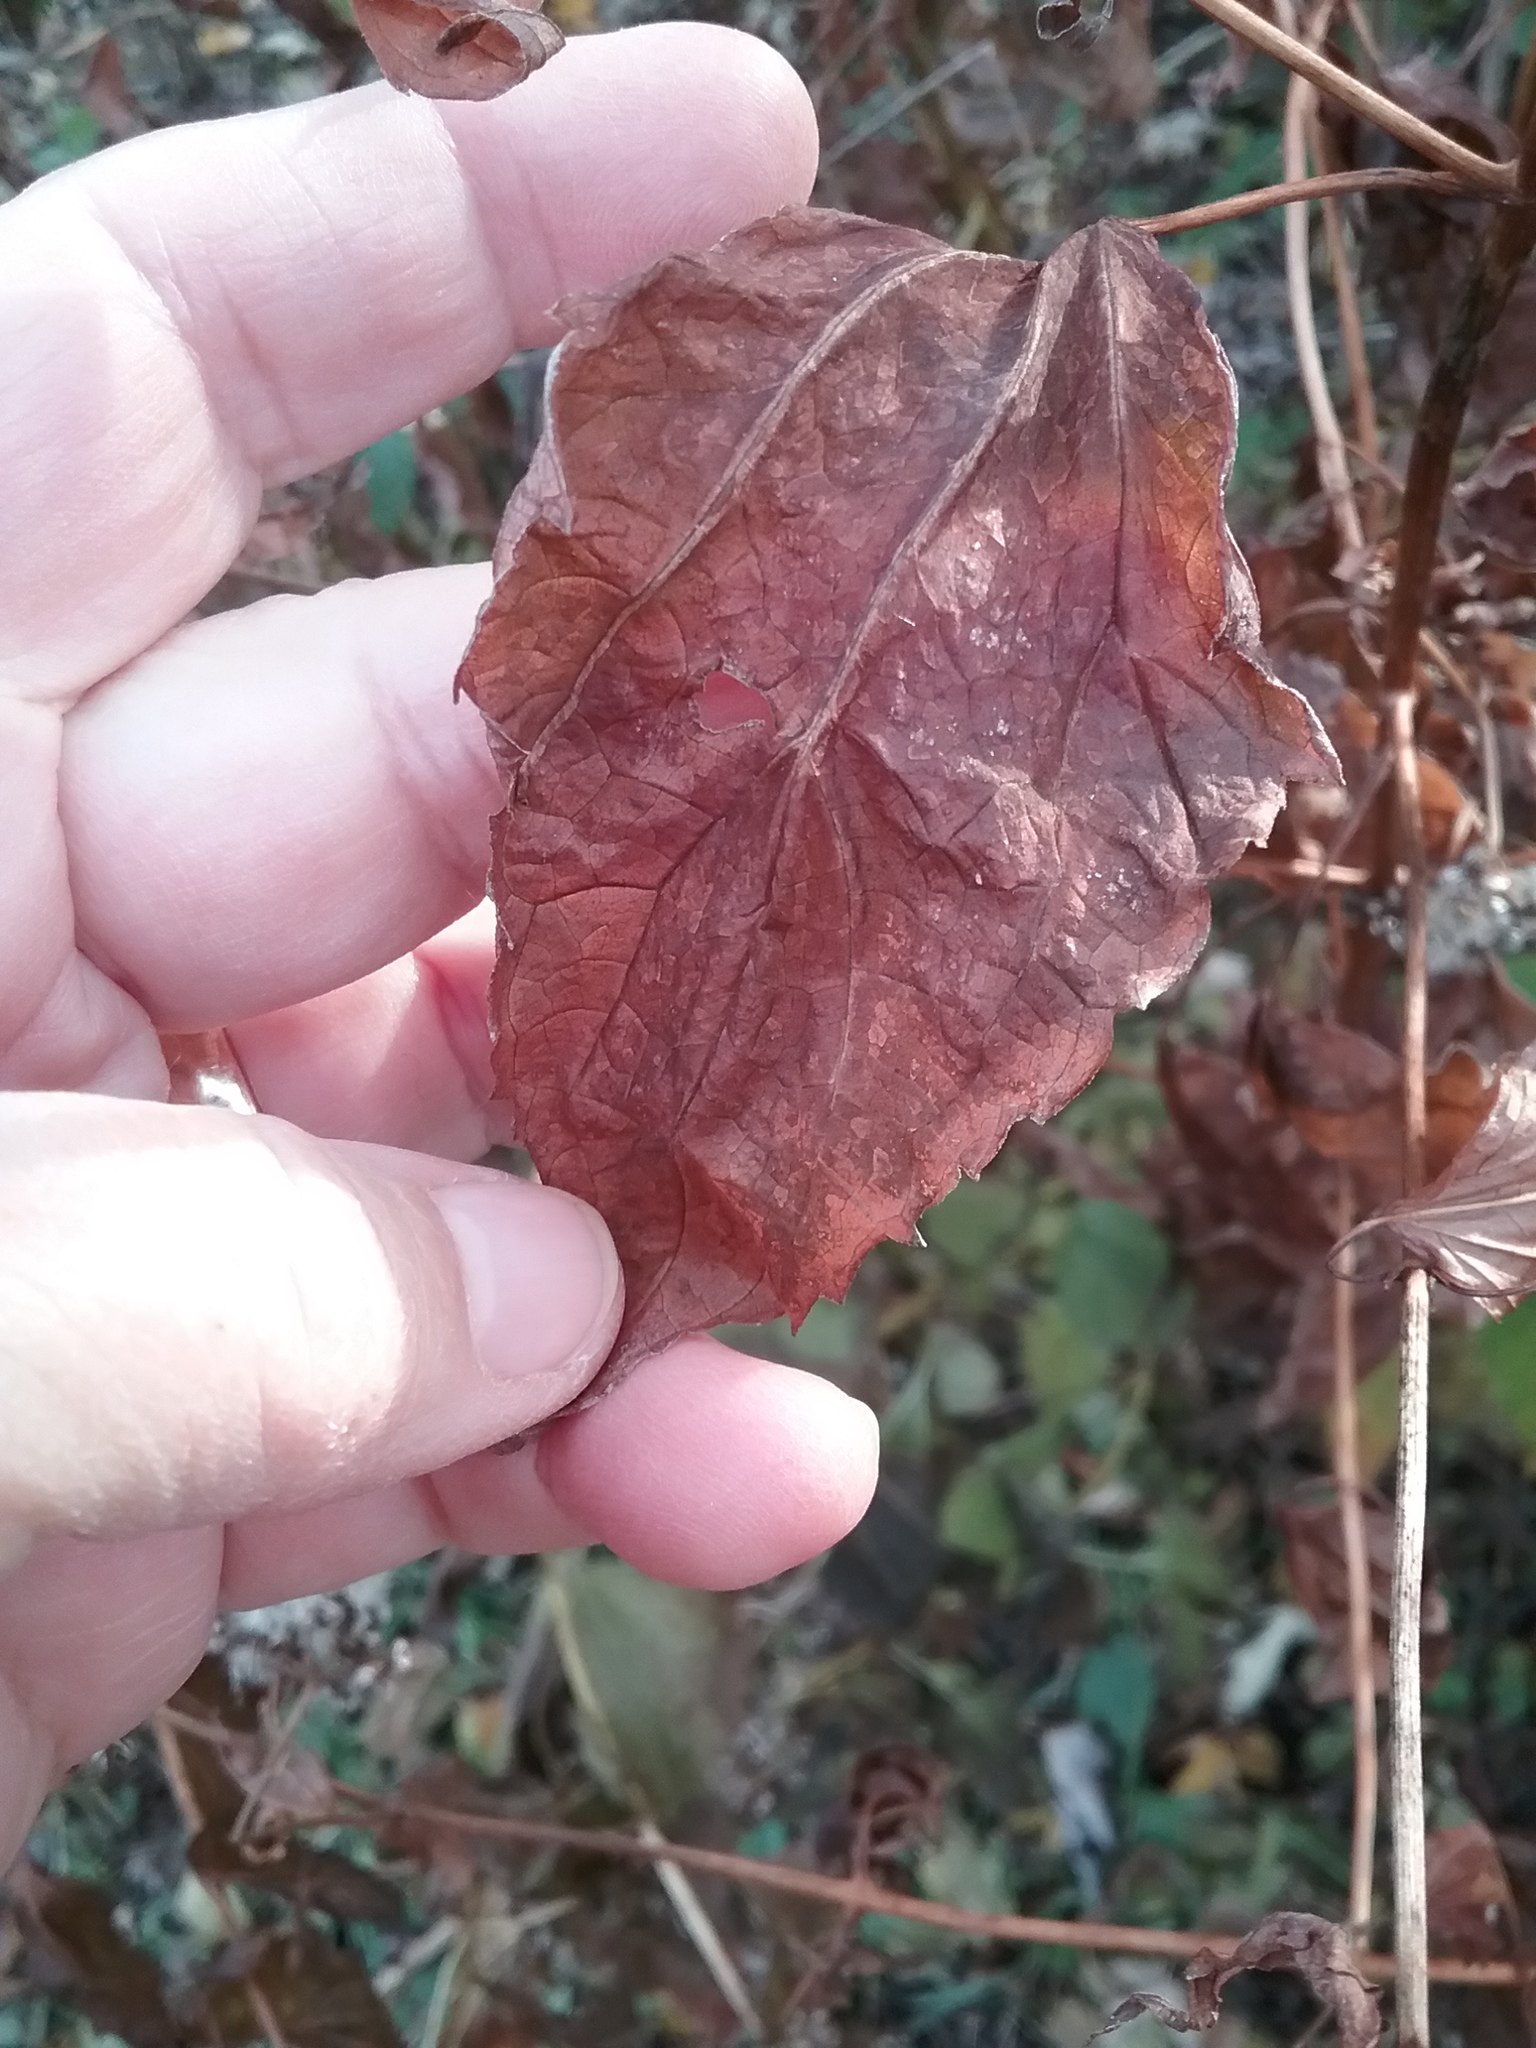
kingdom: Plantae
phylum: Tracheophyta
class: Magnoliopsida
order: Asterales
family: Asteraceae
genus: Ageratina
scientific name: Ageratina altissima
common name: White snakeroot
